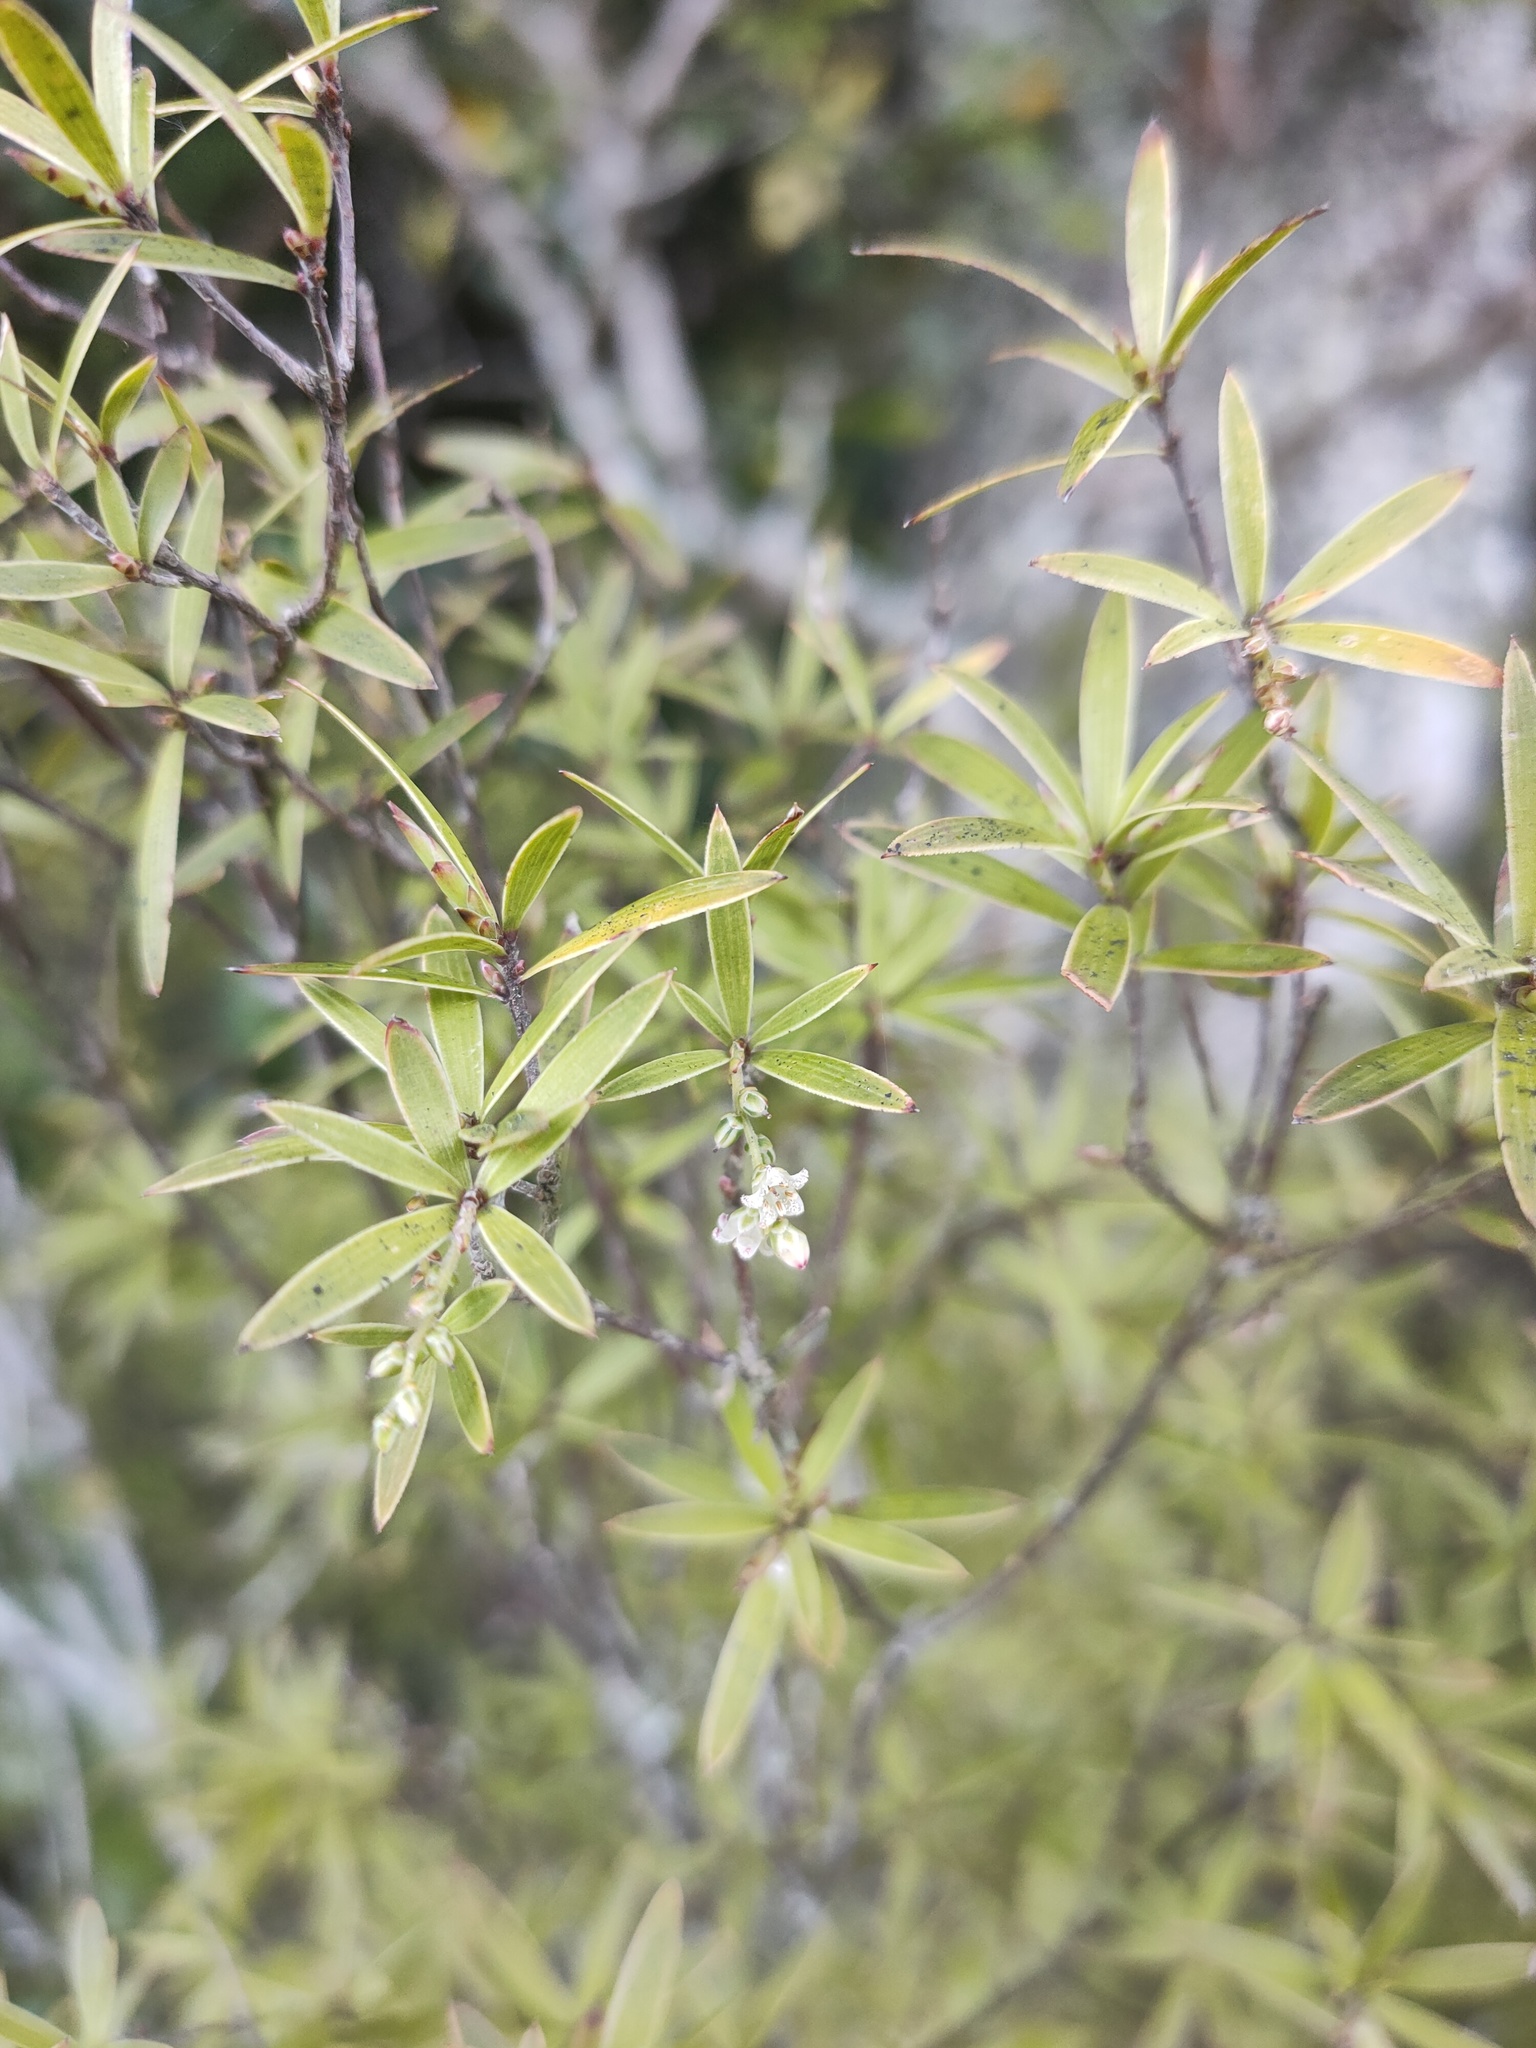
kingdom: Plantae
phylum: Tracheophyta
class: Magnoliopsida
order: Ericales
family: Ericaceae
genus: Leucopogon
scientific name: Leucopogon fasciculatus
